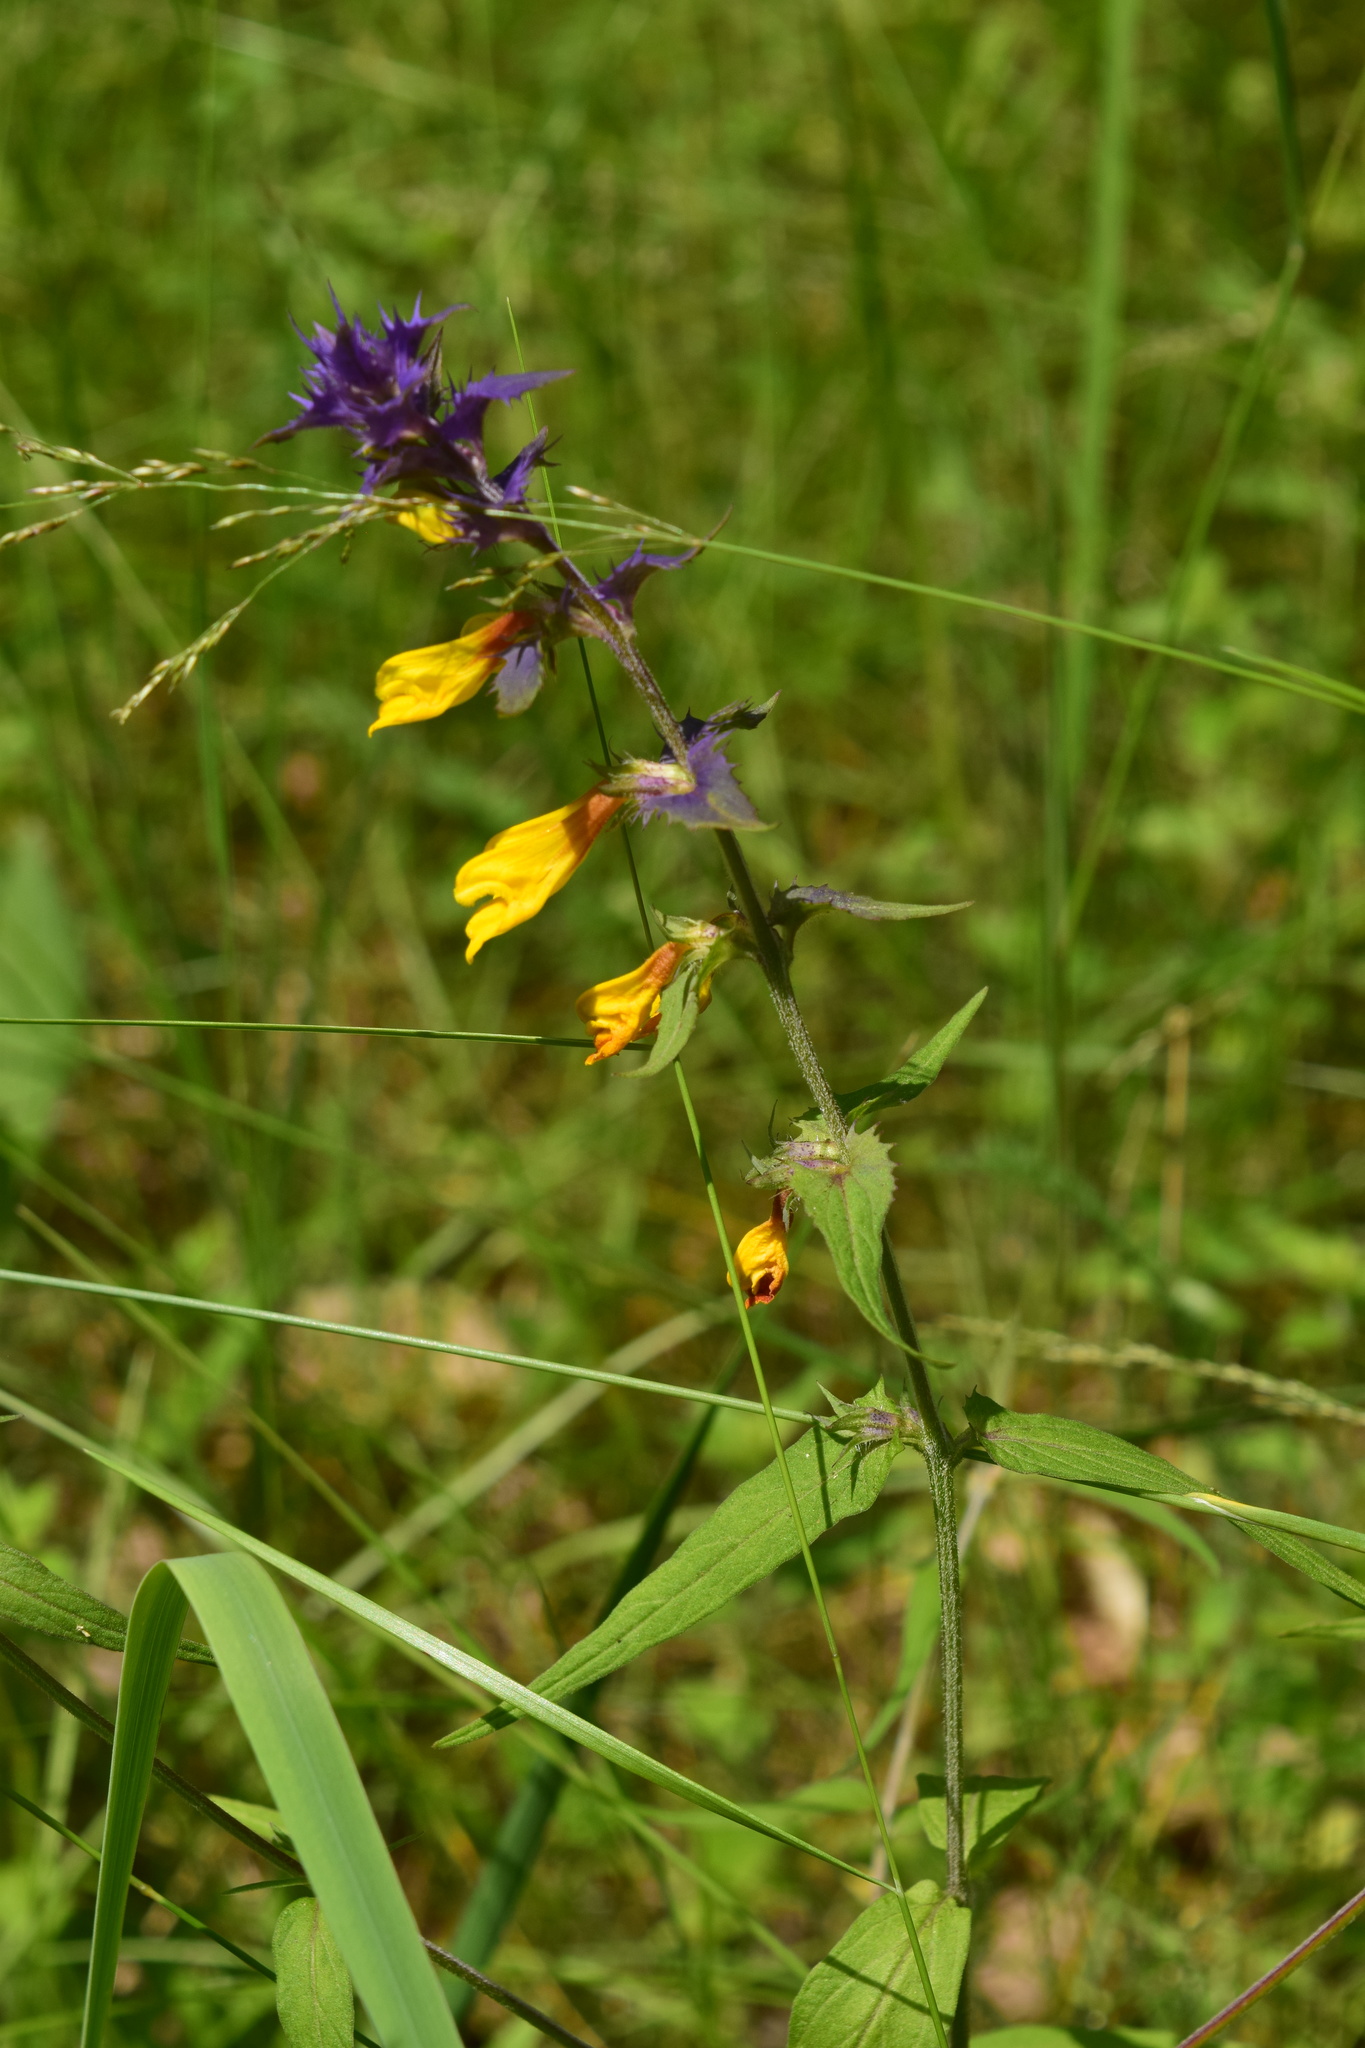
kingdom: Plantae
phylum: Tracheophyta
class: Magnoliopsida
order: Lamiales
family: Orobanchaceae
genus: Melampyrum
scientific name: Melampyrum nemorosum
